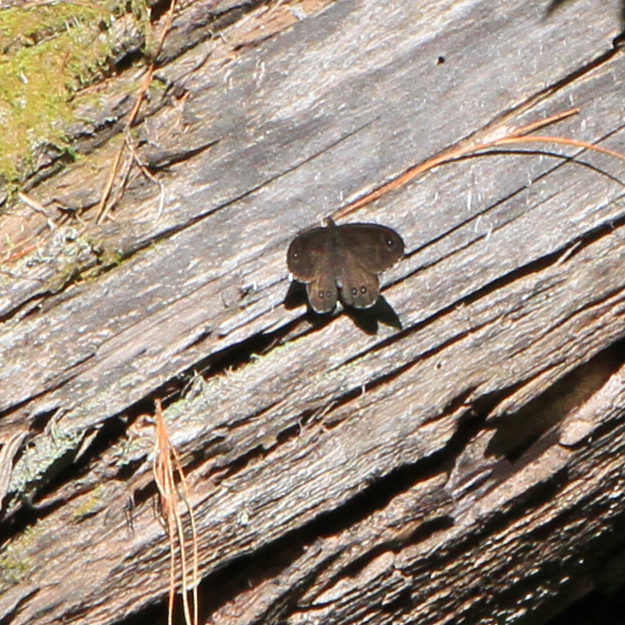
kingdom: Animalia
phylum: Arthropoda
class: Insecta
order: Lepidoptera
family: Nymphalidae
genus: Pararge
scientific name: Pararge Lasiommata deidamia
